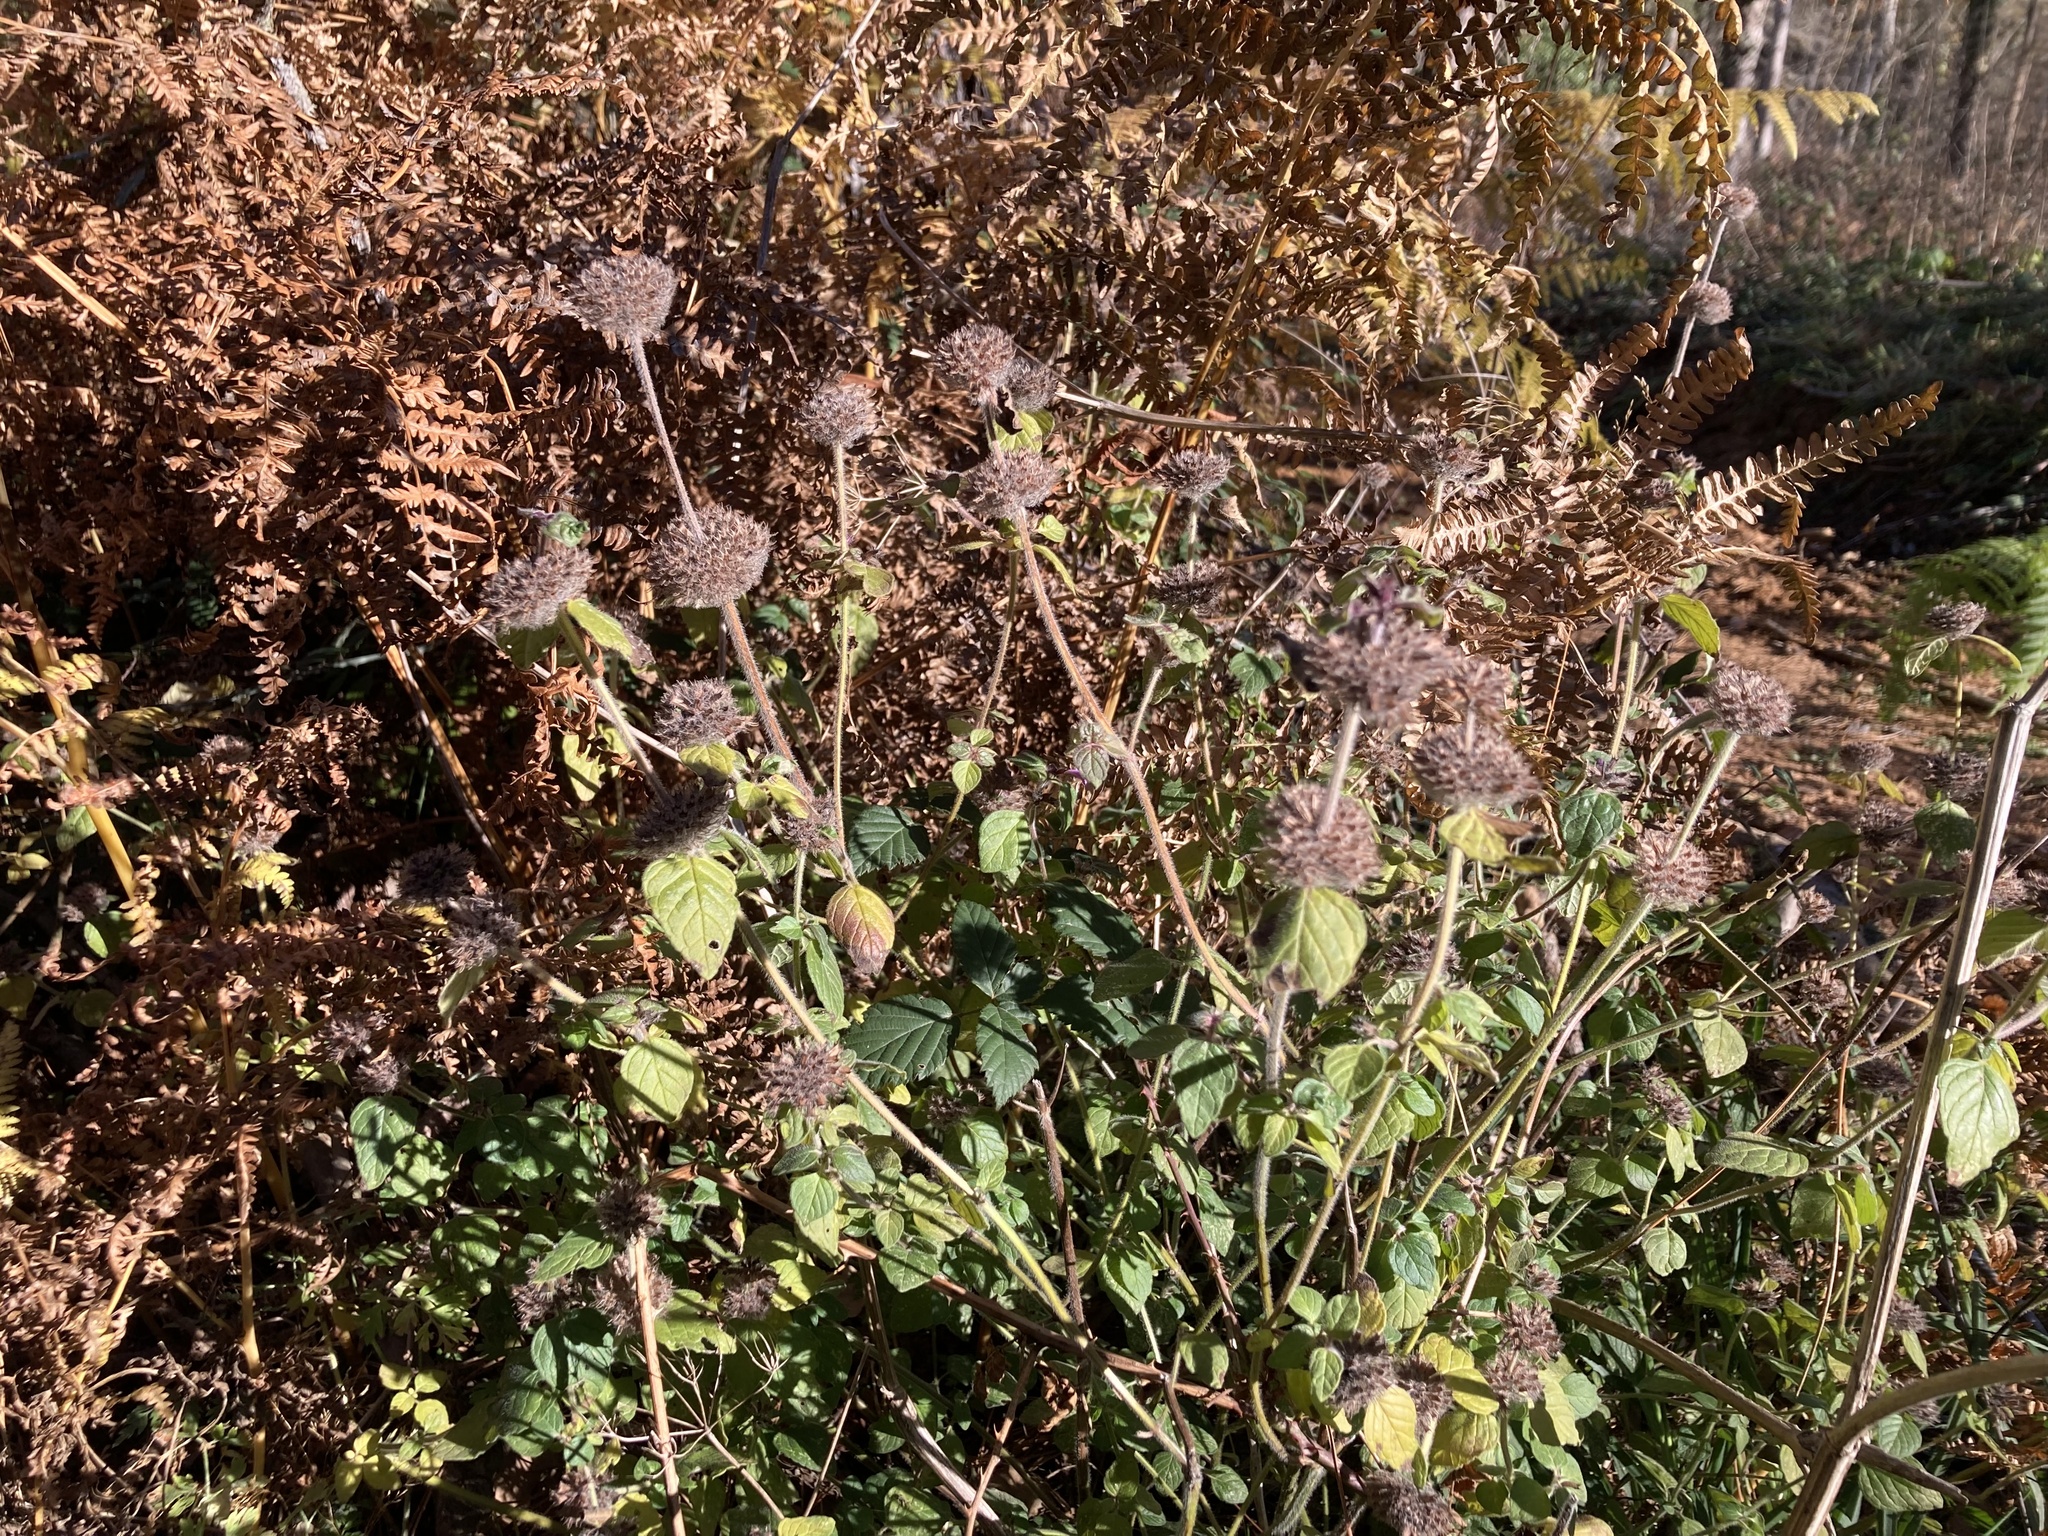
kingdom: Plantae
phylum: Tracheophyta
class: Magnoliopsida
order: Lamiales
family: Lamiaceae
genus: Clinopodium
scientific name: Clinopodium vulgare
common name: Wild basil
